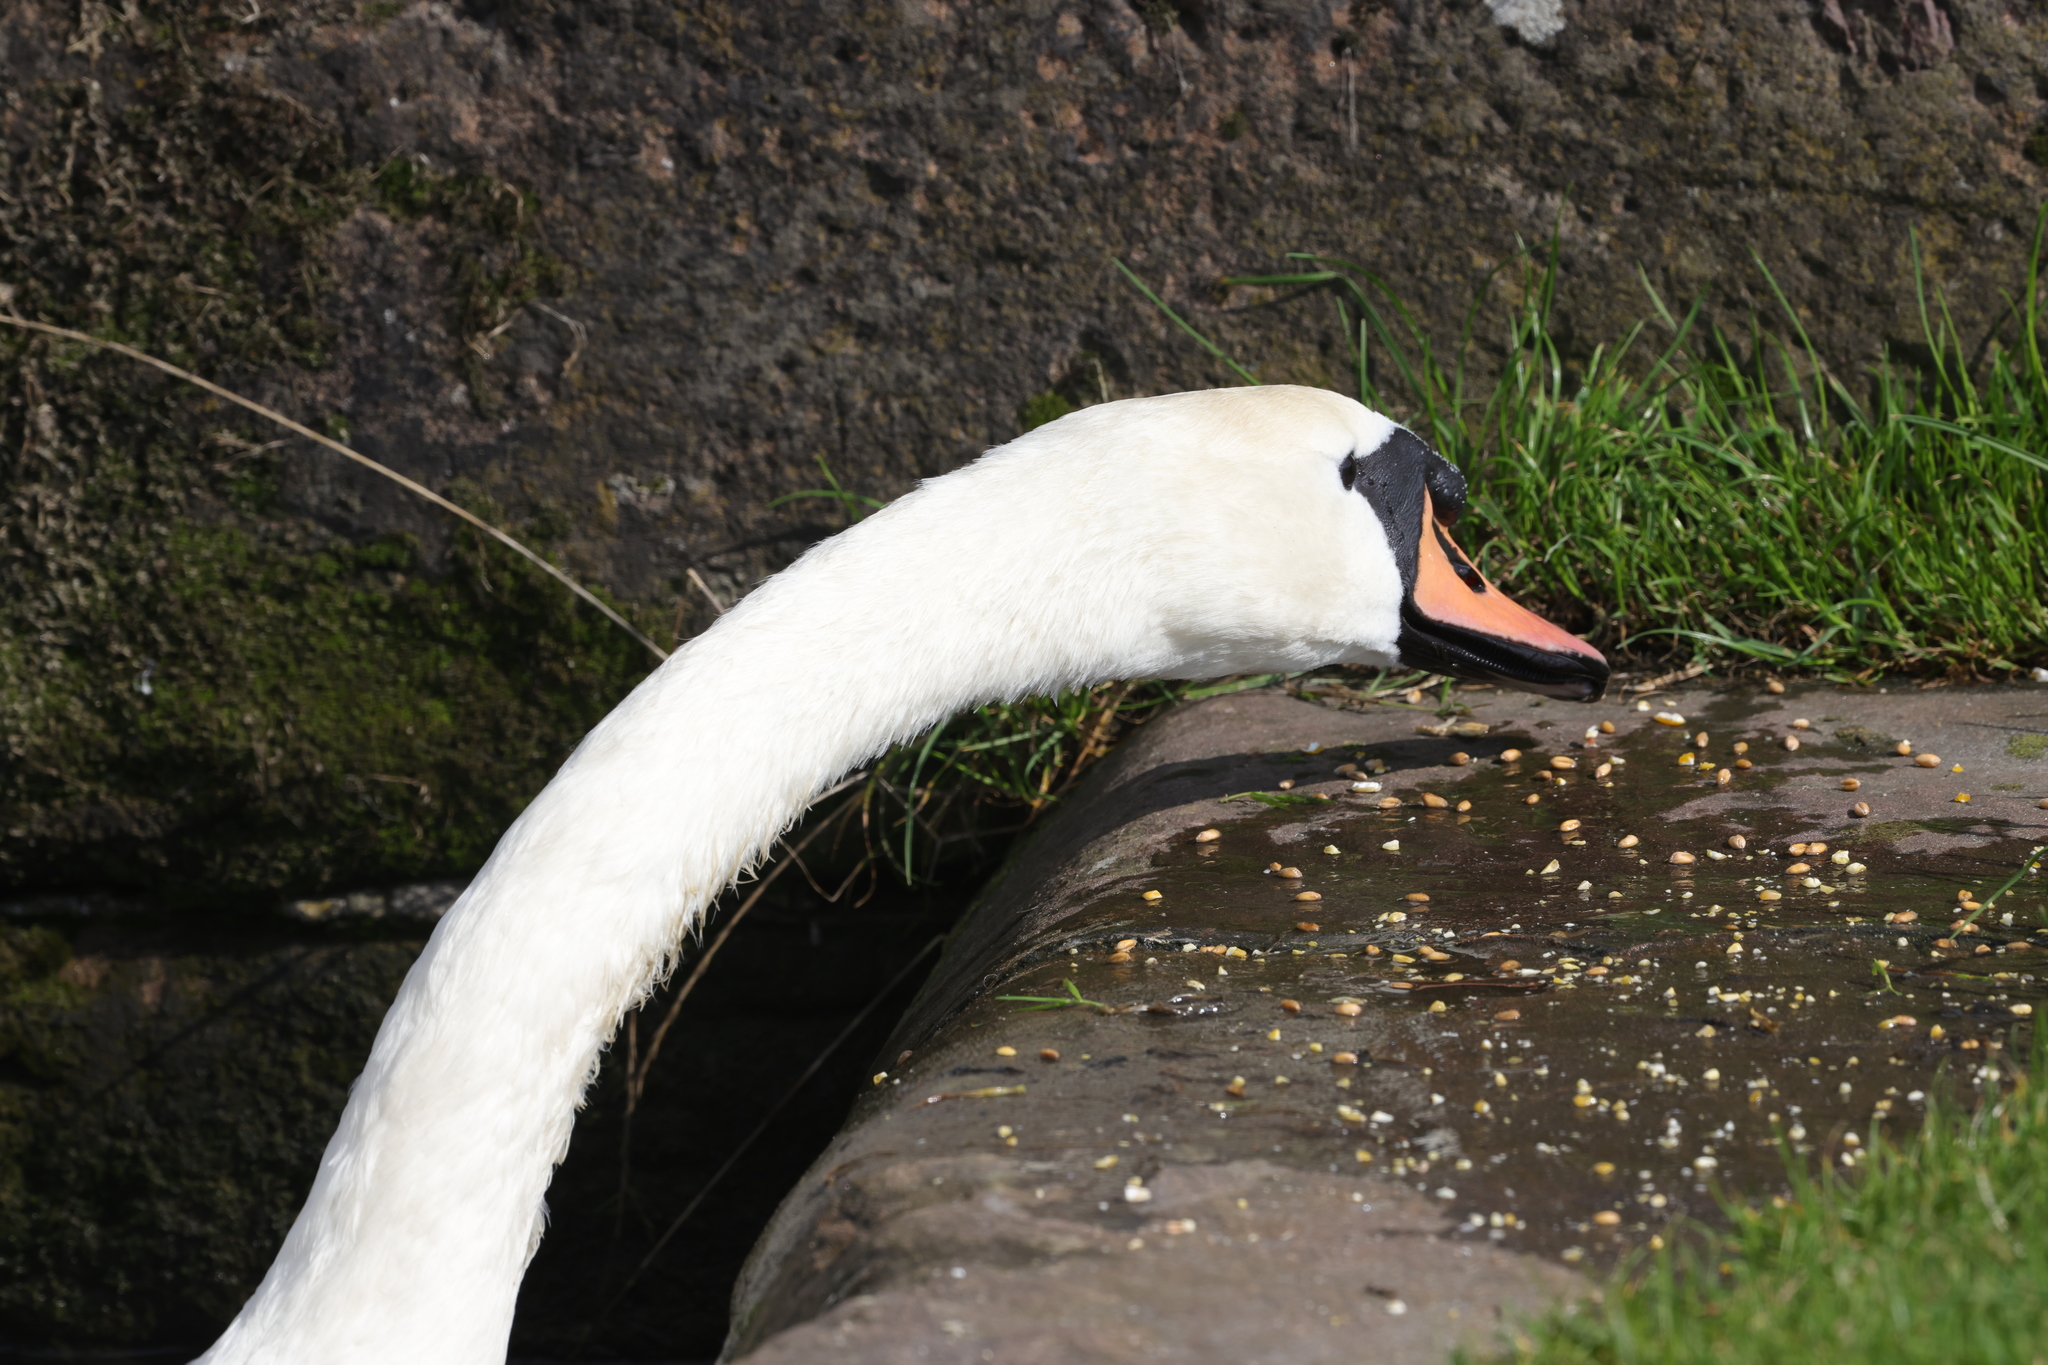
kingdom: Animalia
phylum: Chordata
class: Aves
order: Anseriformes
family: Anatidae
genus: Cygnus
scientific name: Cygnus olor
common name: Mute swan
